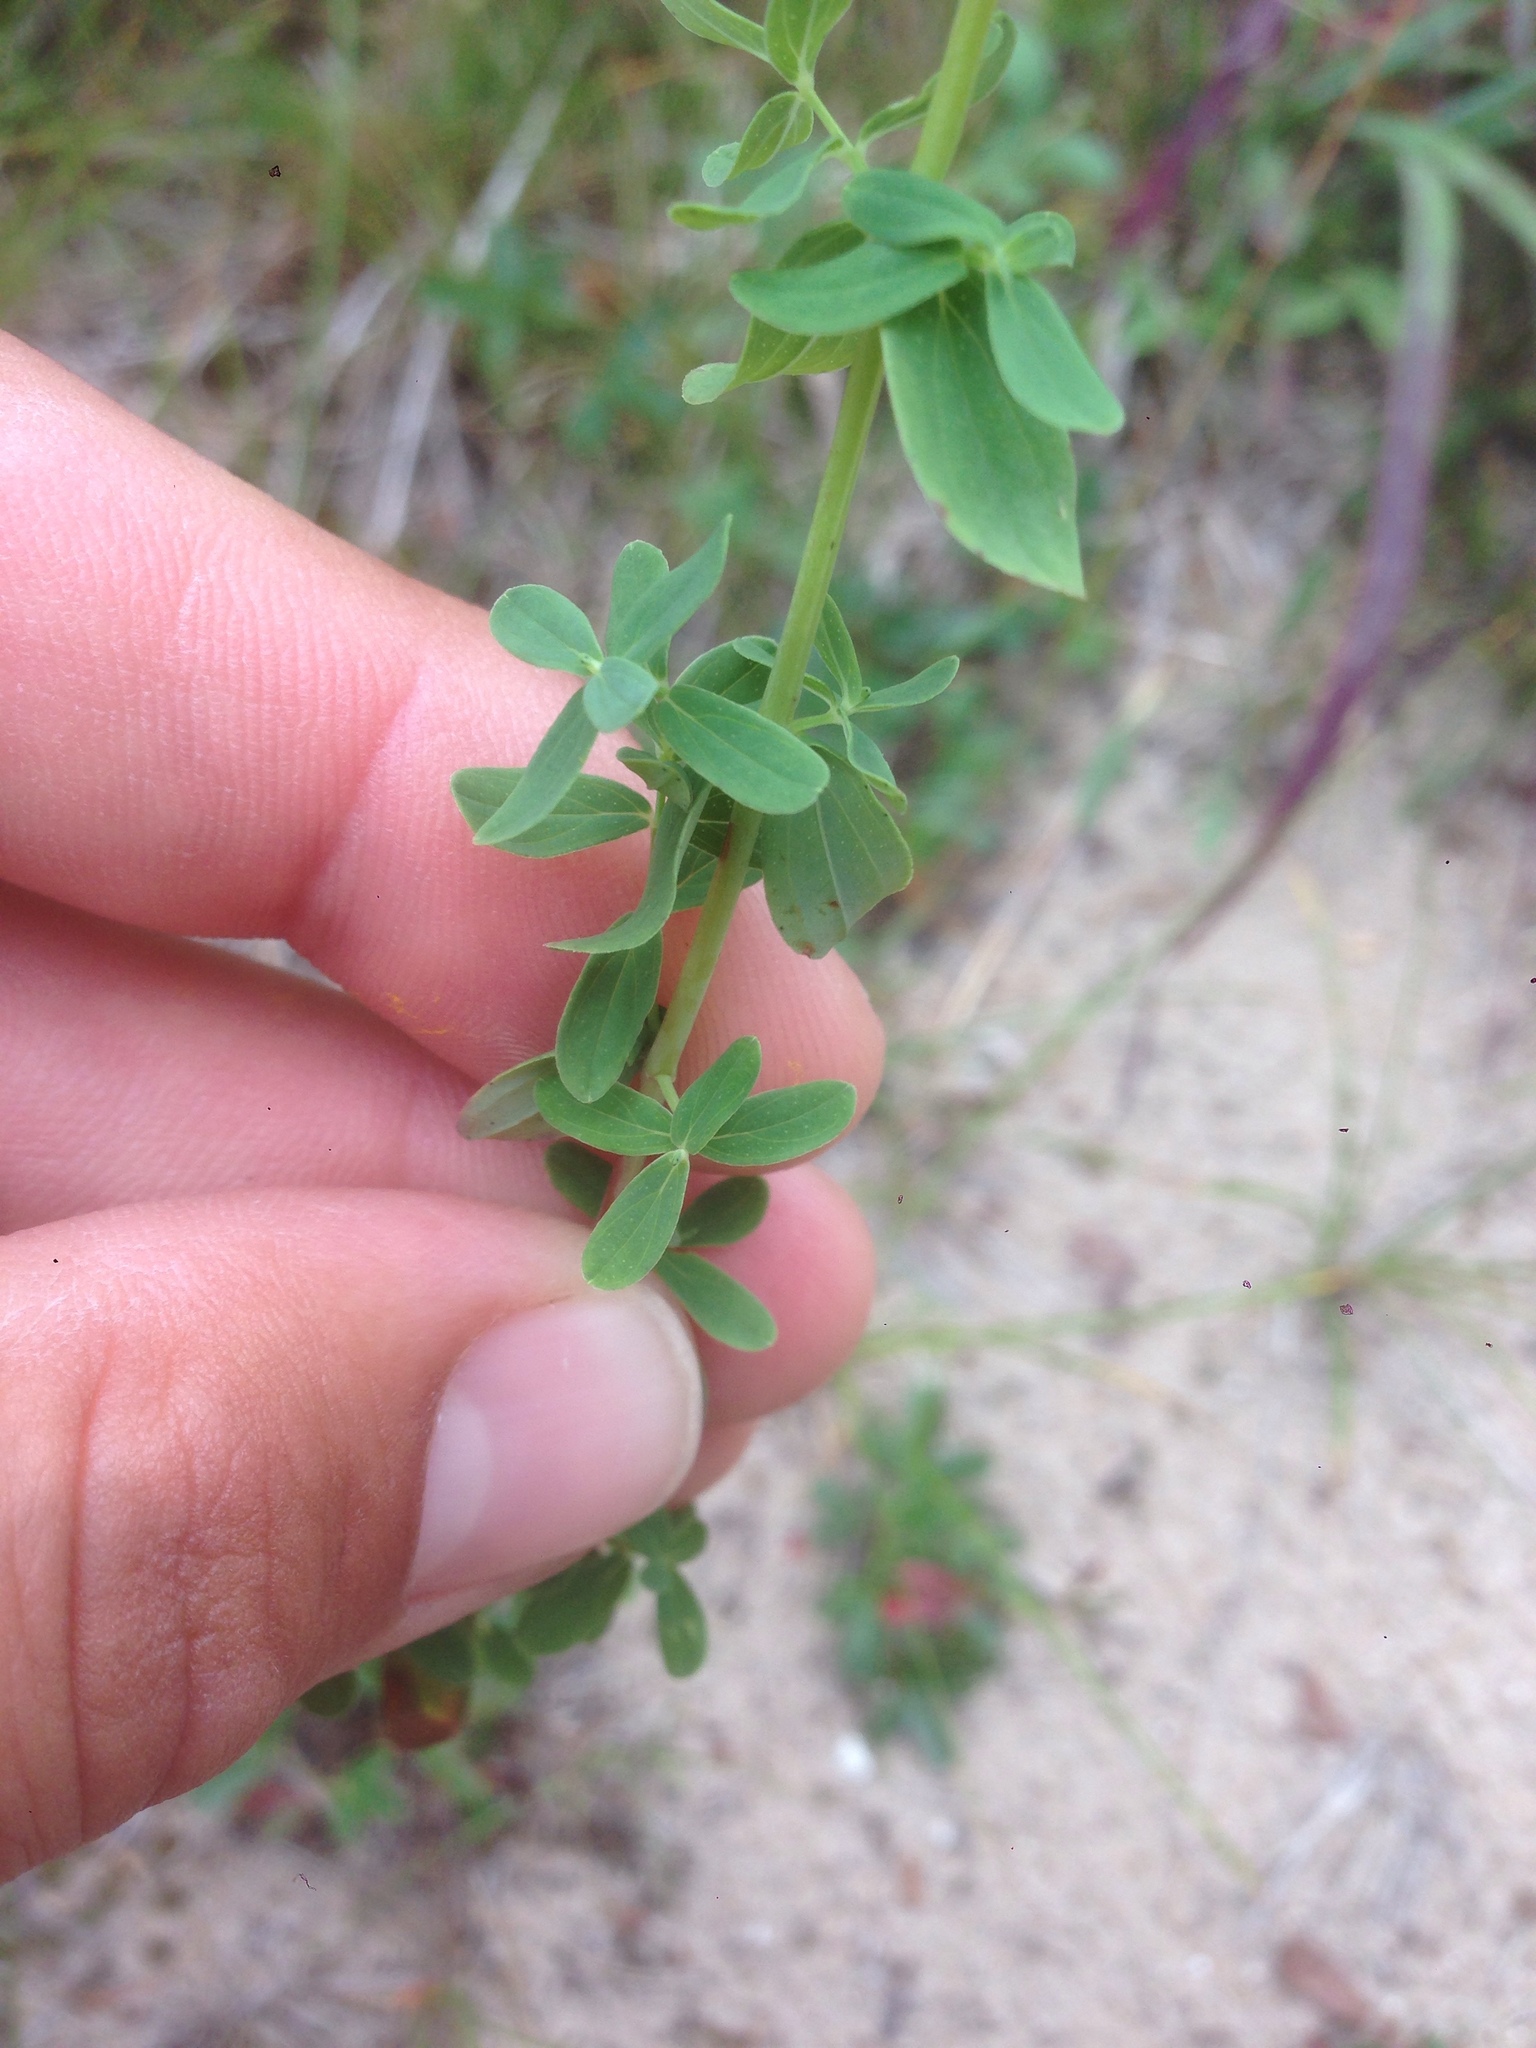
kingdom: Plantae
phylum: Tracheophyta
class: Magnoliopsida
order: Malpighiales
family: Hypericaceae
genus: Hypericum
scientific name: Hypericum perforatum
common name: Common st. johnswort
